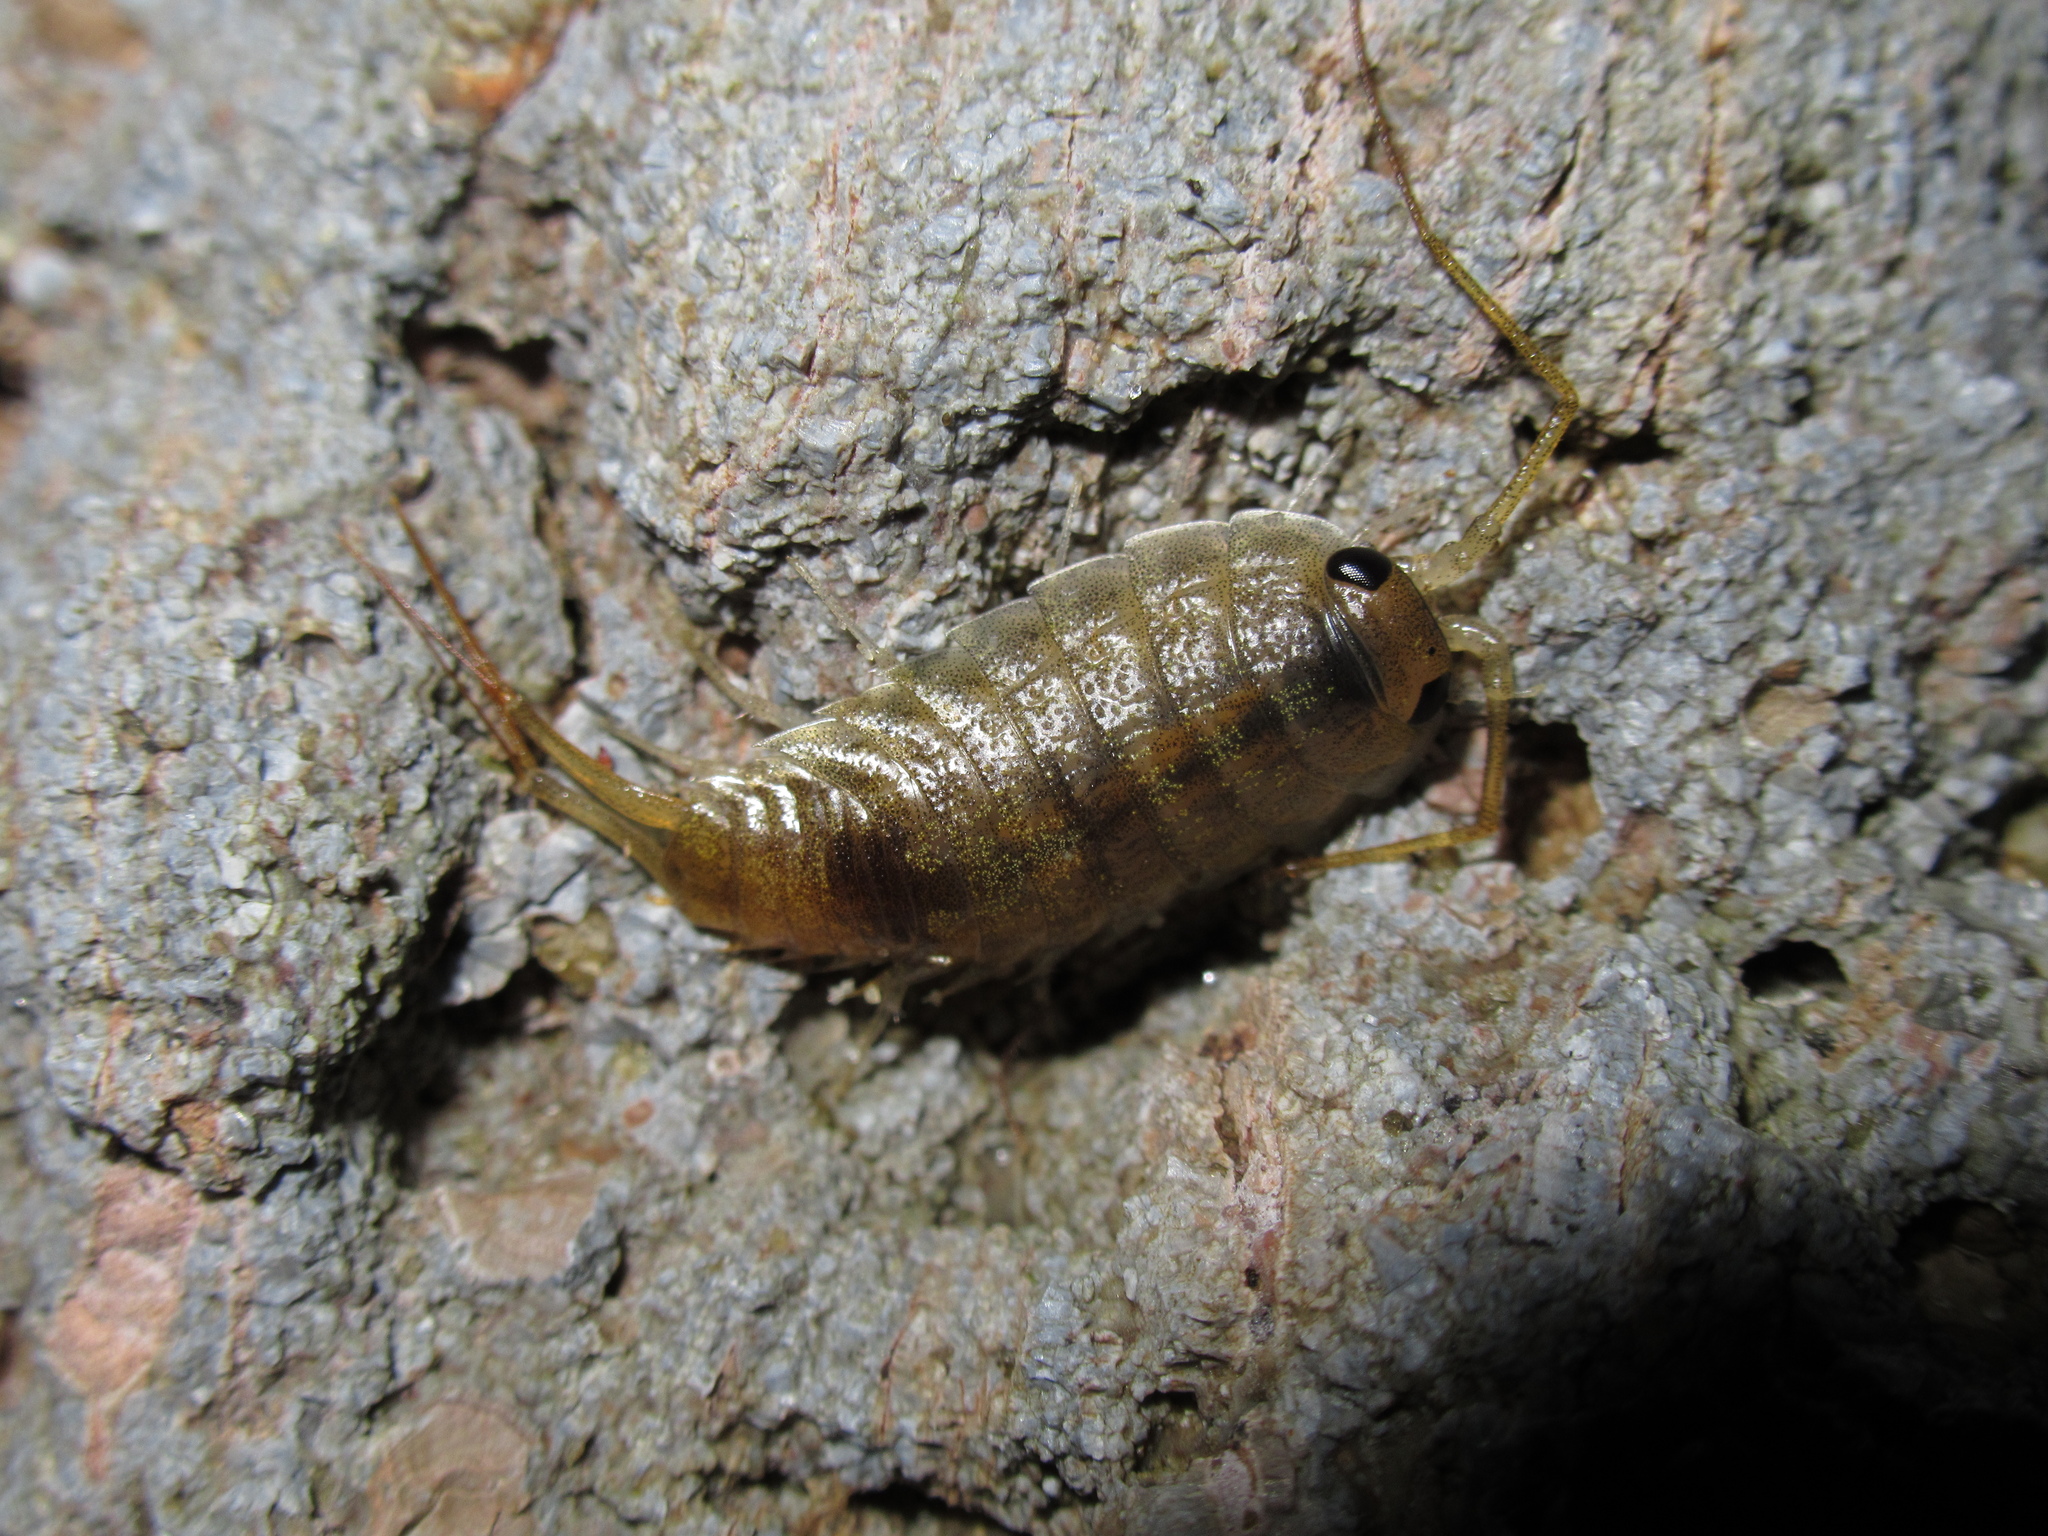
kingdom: Animalia
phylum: Arthropoda
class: Malacostraca
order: Isopoda
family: Ligiidae
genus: Ligia
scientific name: Ligia novizealandiae
